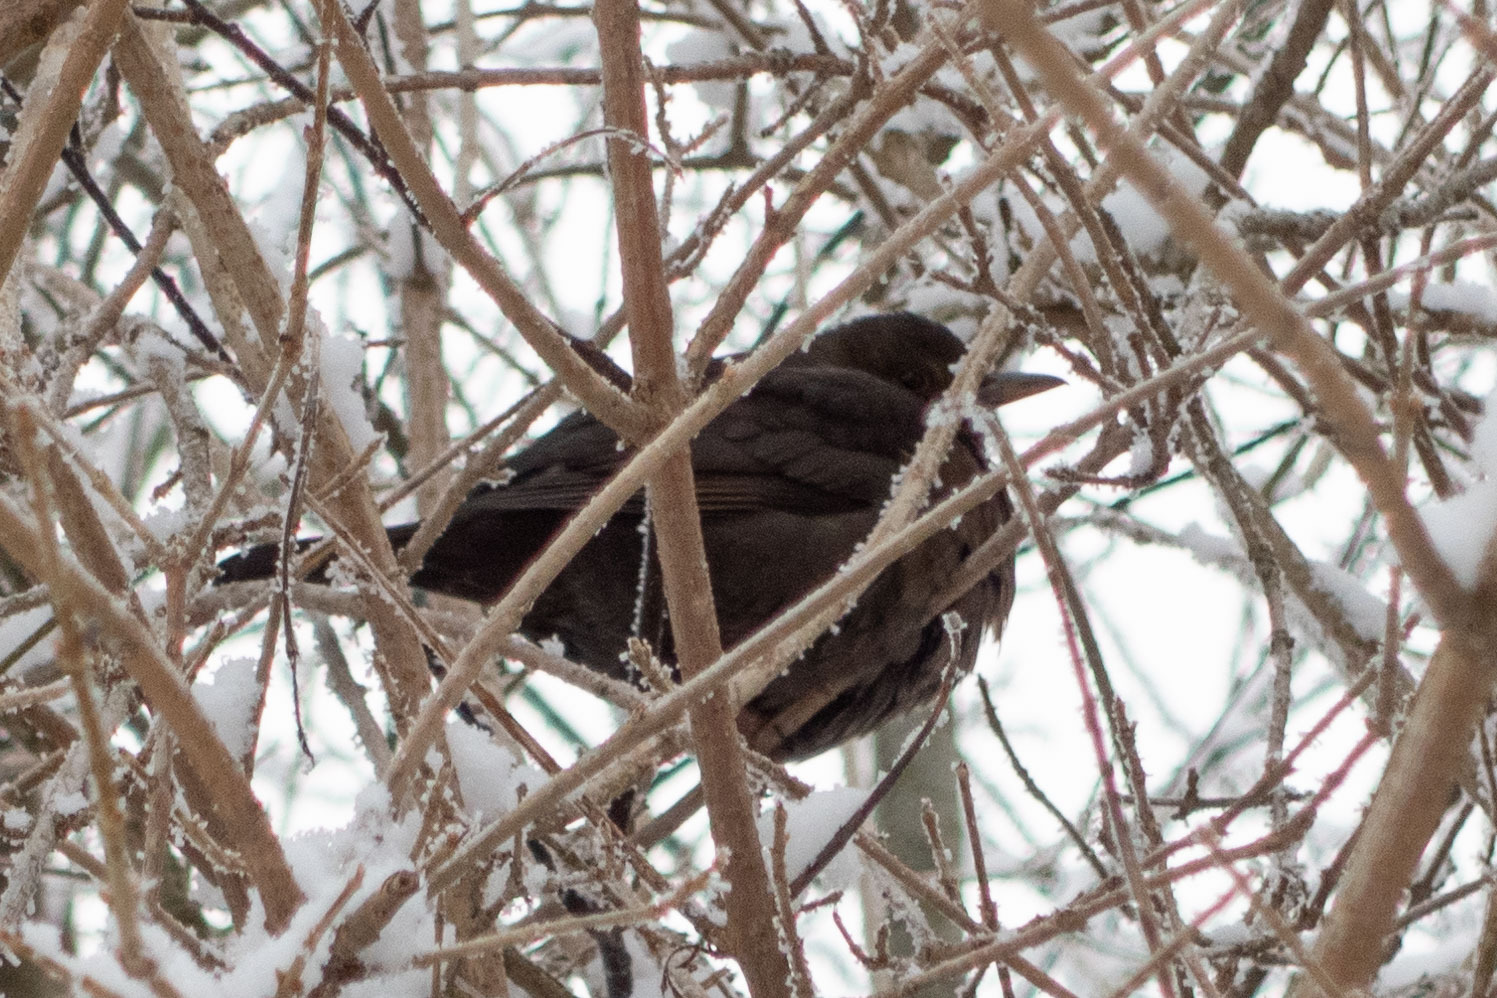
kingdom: Animalia
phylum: Chordata
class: Aves
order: Passeriformes
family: Turdidae
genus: Turdus
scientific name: Turdus merula
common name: Common blackbird
